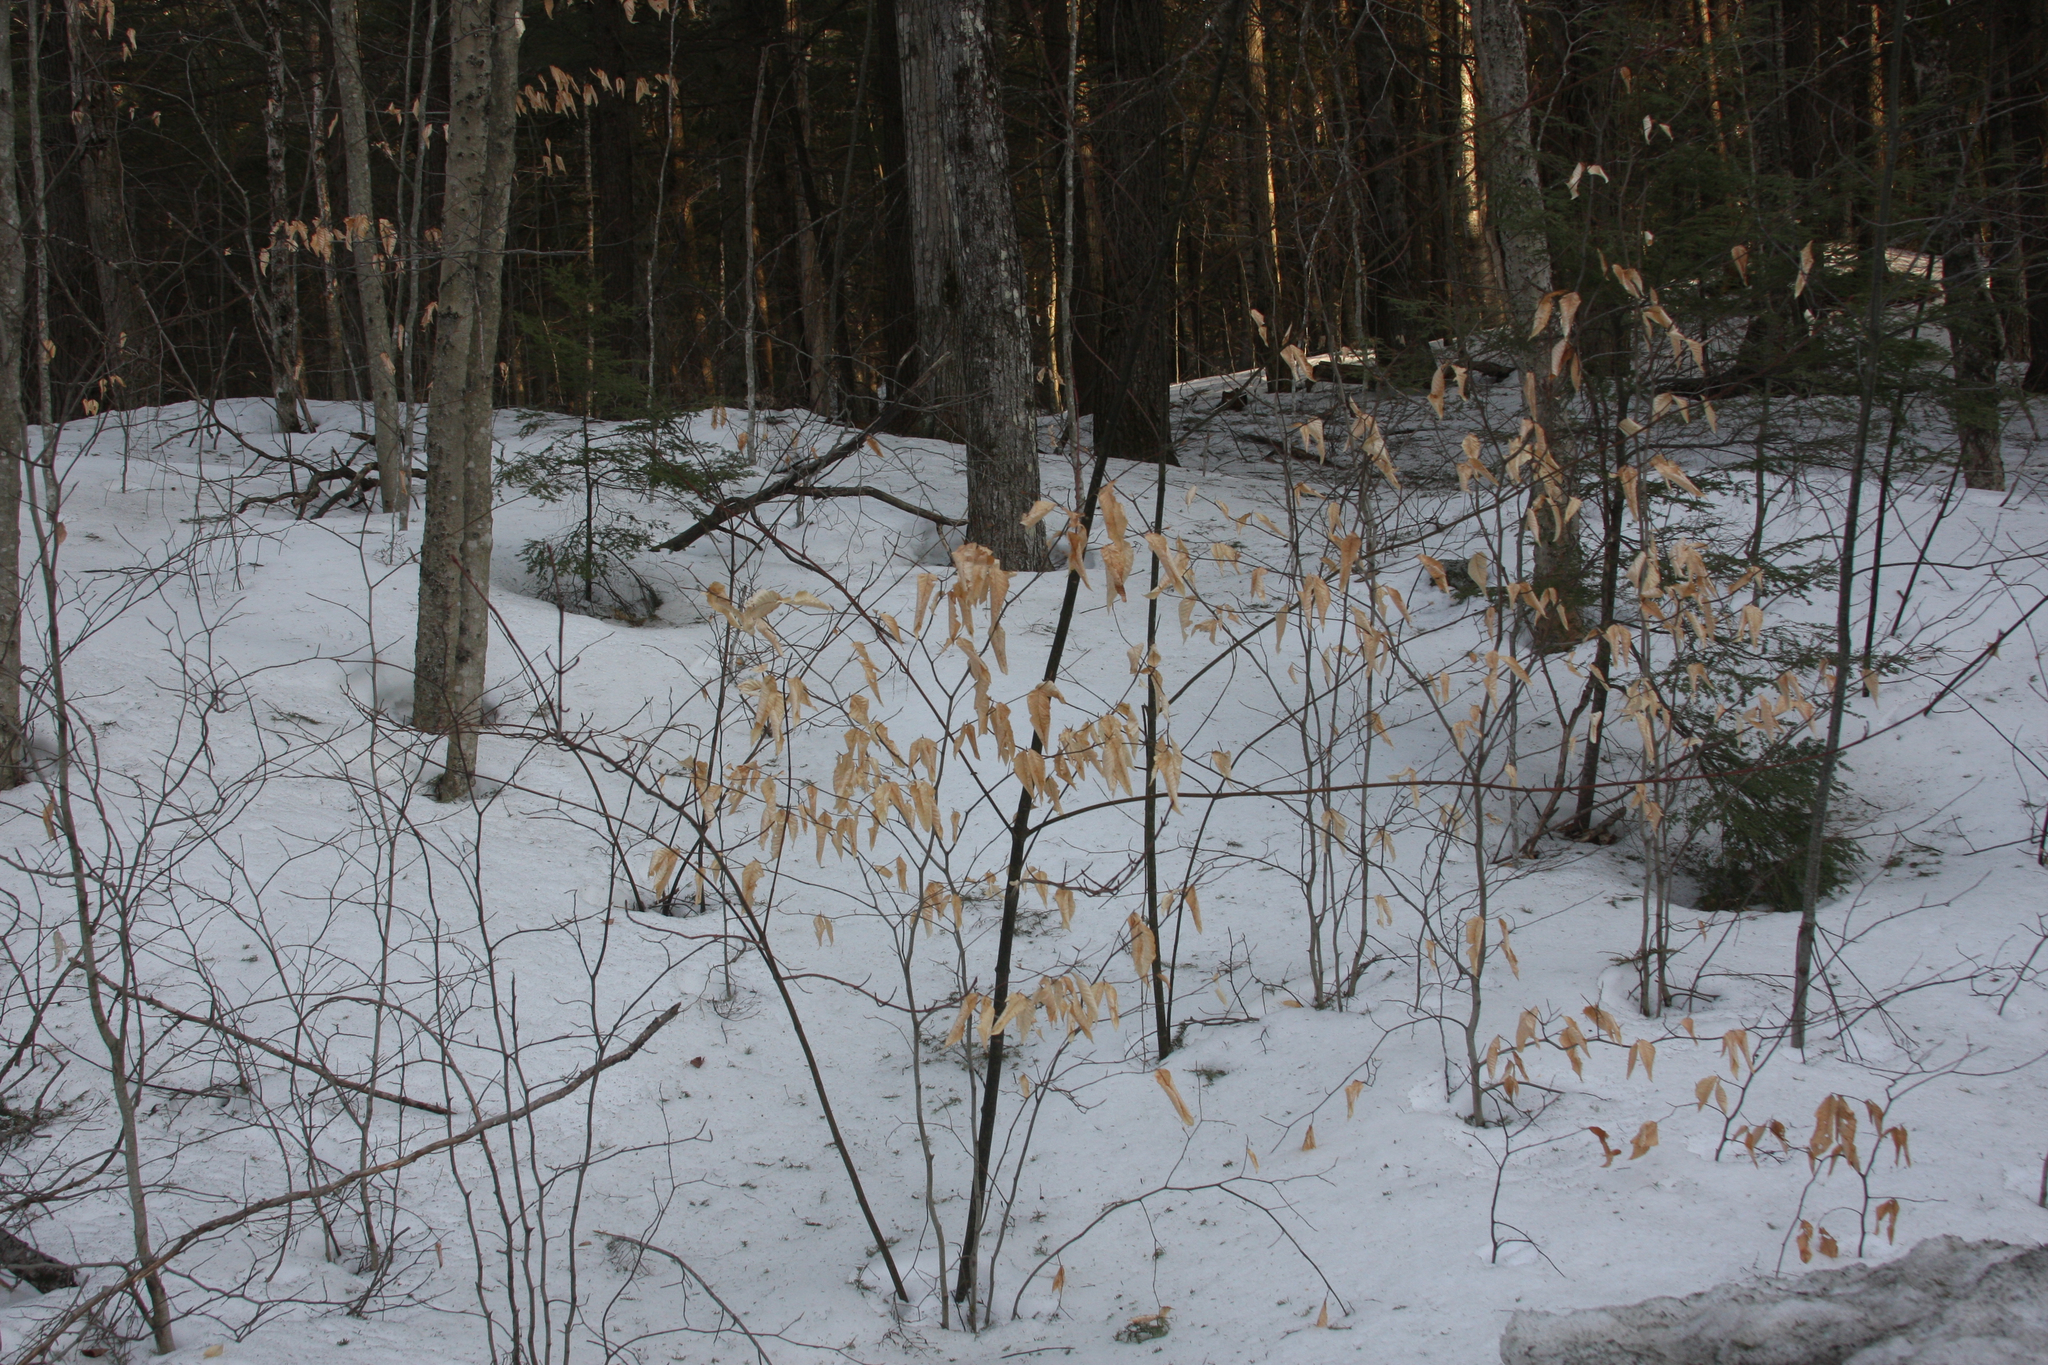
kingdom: Plantae
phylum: Tracheophyta
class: Magnoliopsida
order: Fagales
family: Fagaceae
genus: Fagus
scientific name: Fagus grandifolia
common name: American beech
